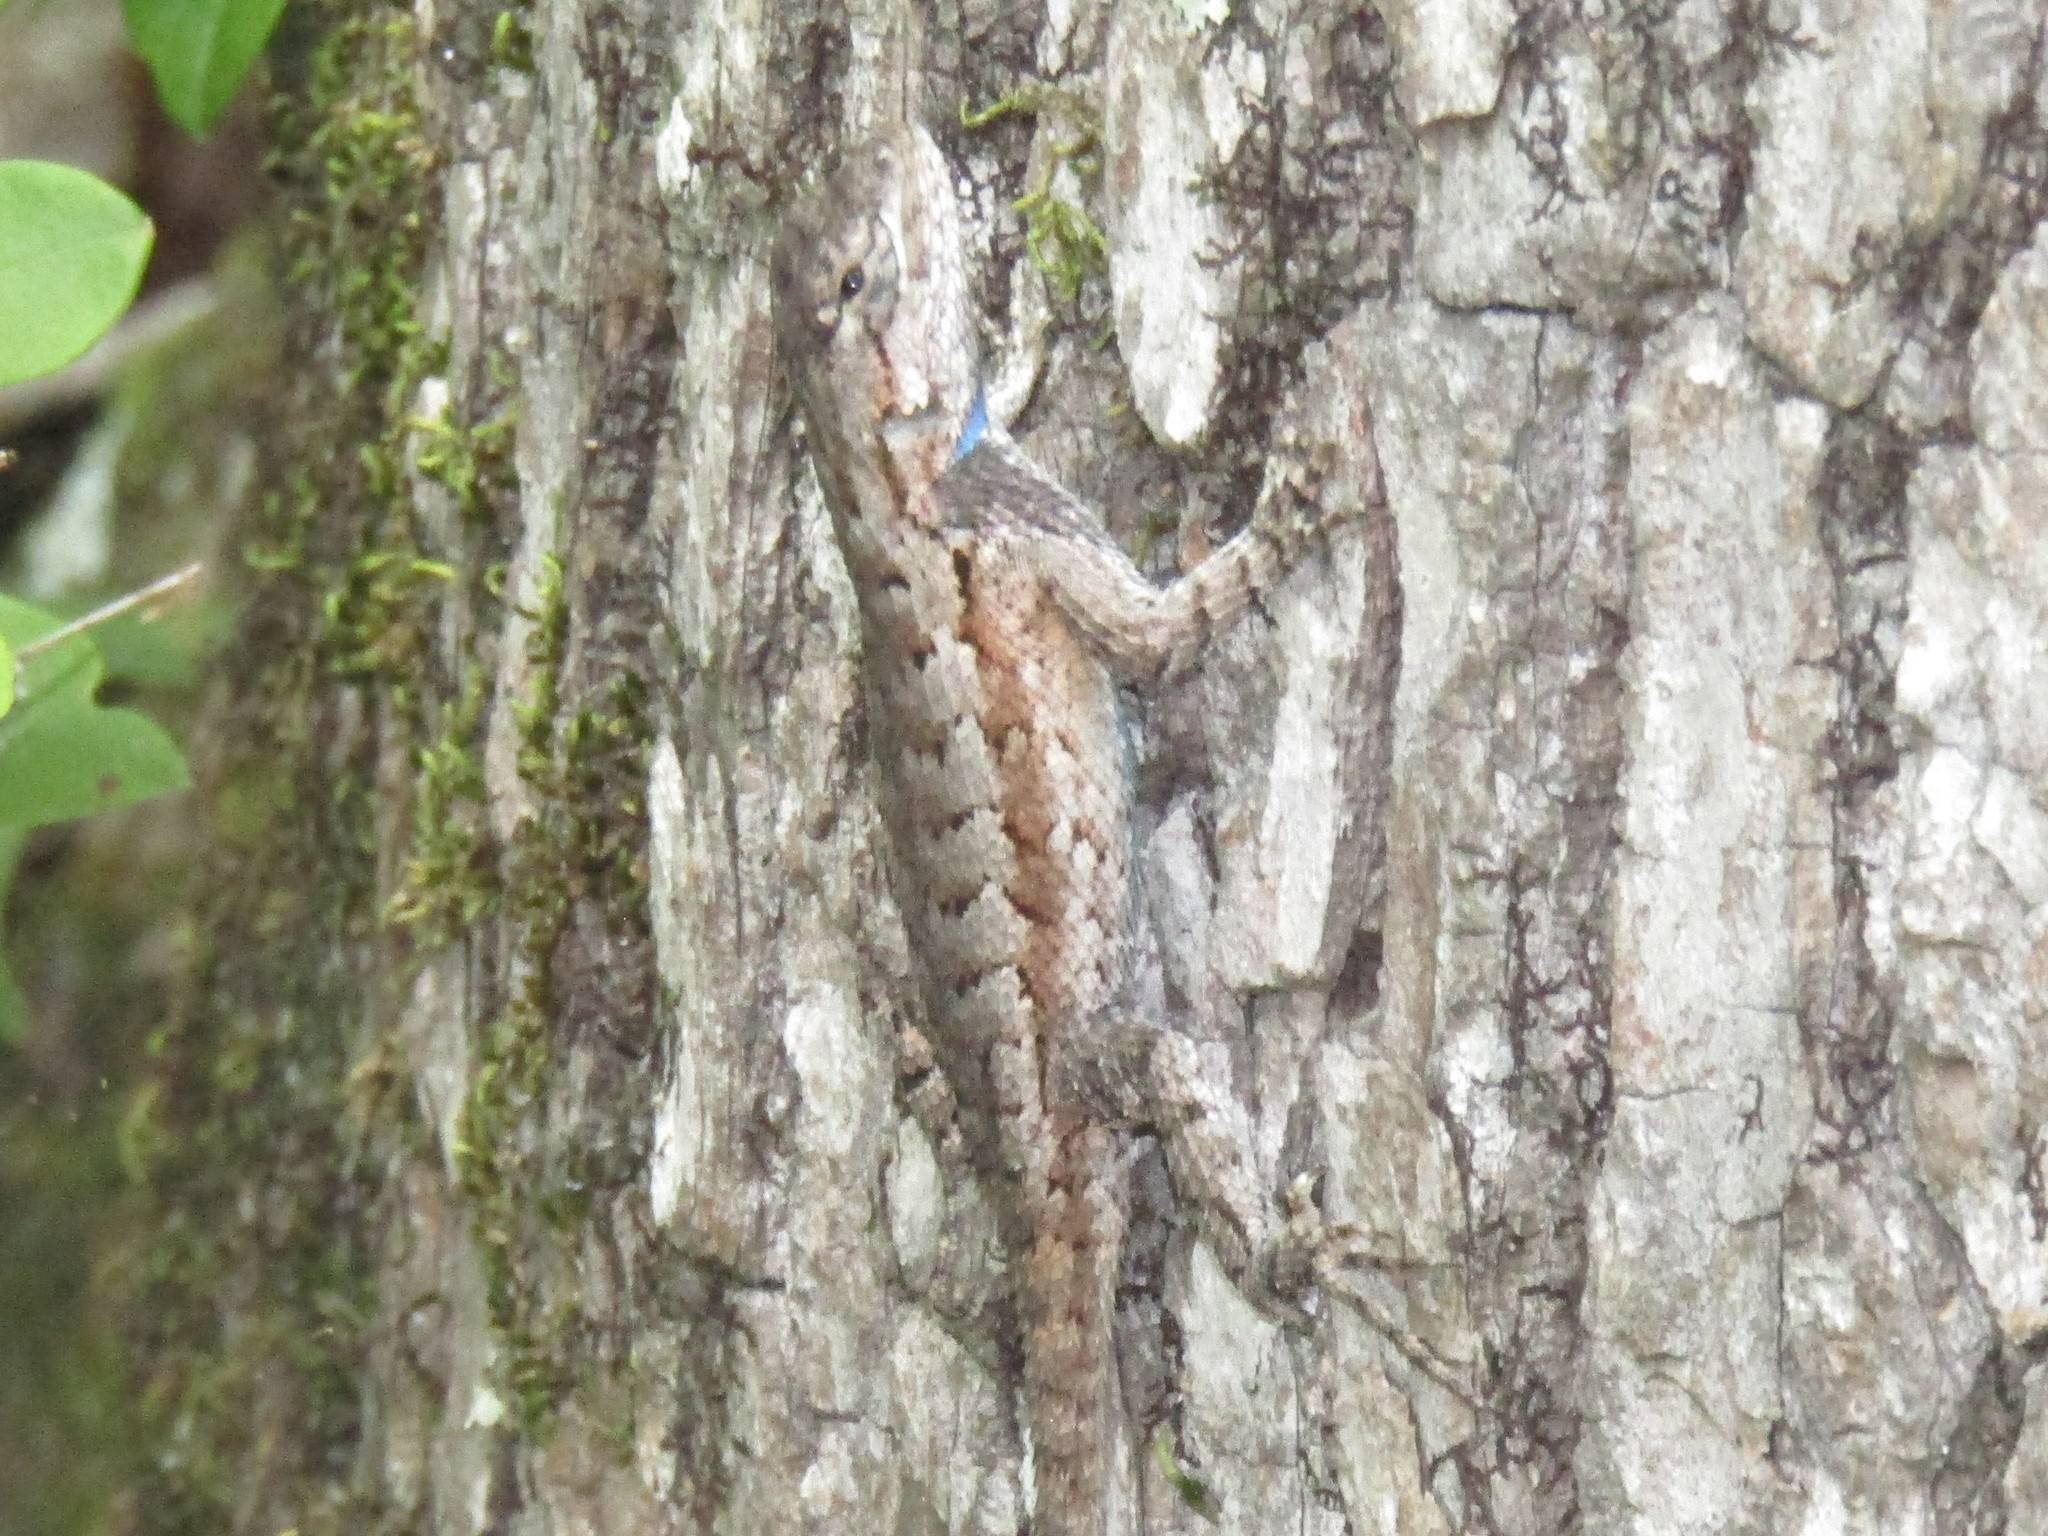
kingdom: Animalia
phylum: Chordata
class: Squamata
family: Phrynosomatidae
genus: Sceloporus
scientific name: Sceloporus undulatus
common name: Eastern fence lizard
